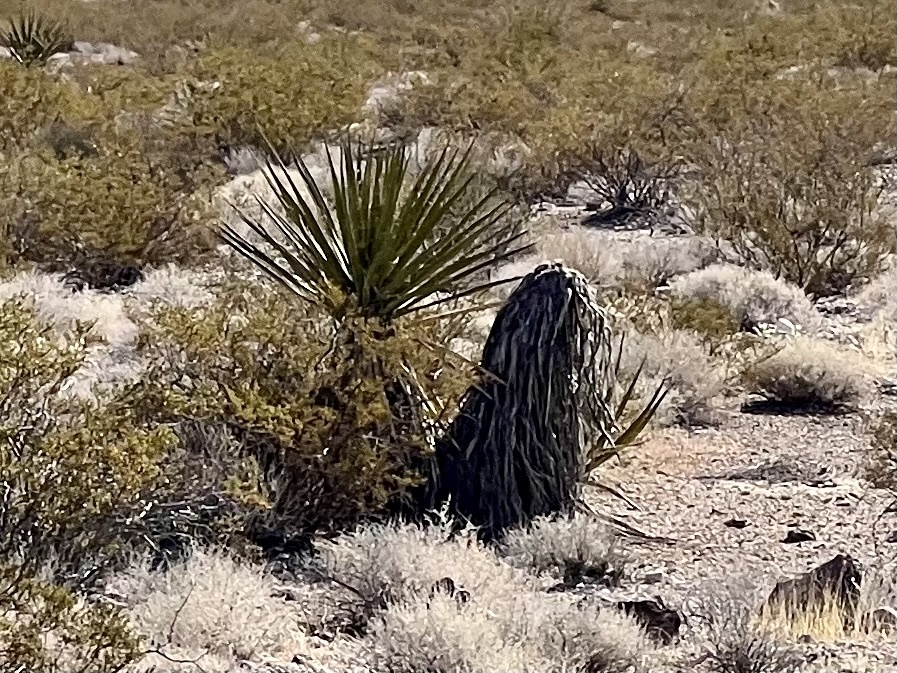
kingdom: Plantae
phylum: Tracheophyta
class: Liliopsida
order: Asparagales
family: Asparagaceae
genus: Yucca
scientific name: Yucca schidigera
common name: Mojave yucca
